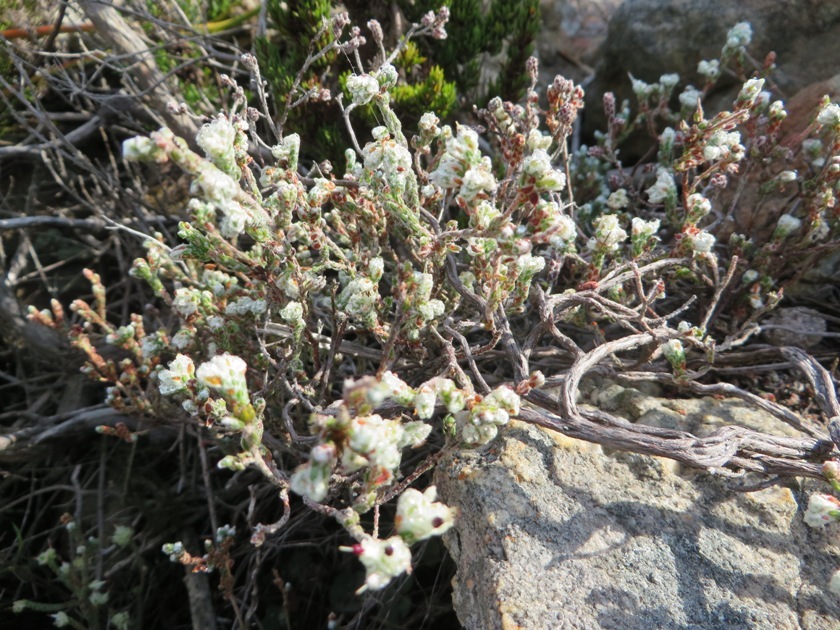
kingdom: Plantae
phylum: Tracheophyta
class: Magnoliopsida
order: Ericales
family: Ericaceae
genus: Erica
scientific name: Erica xeranthemifolia
